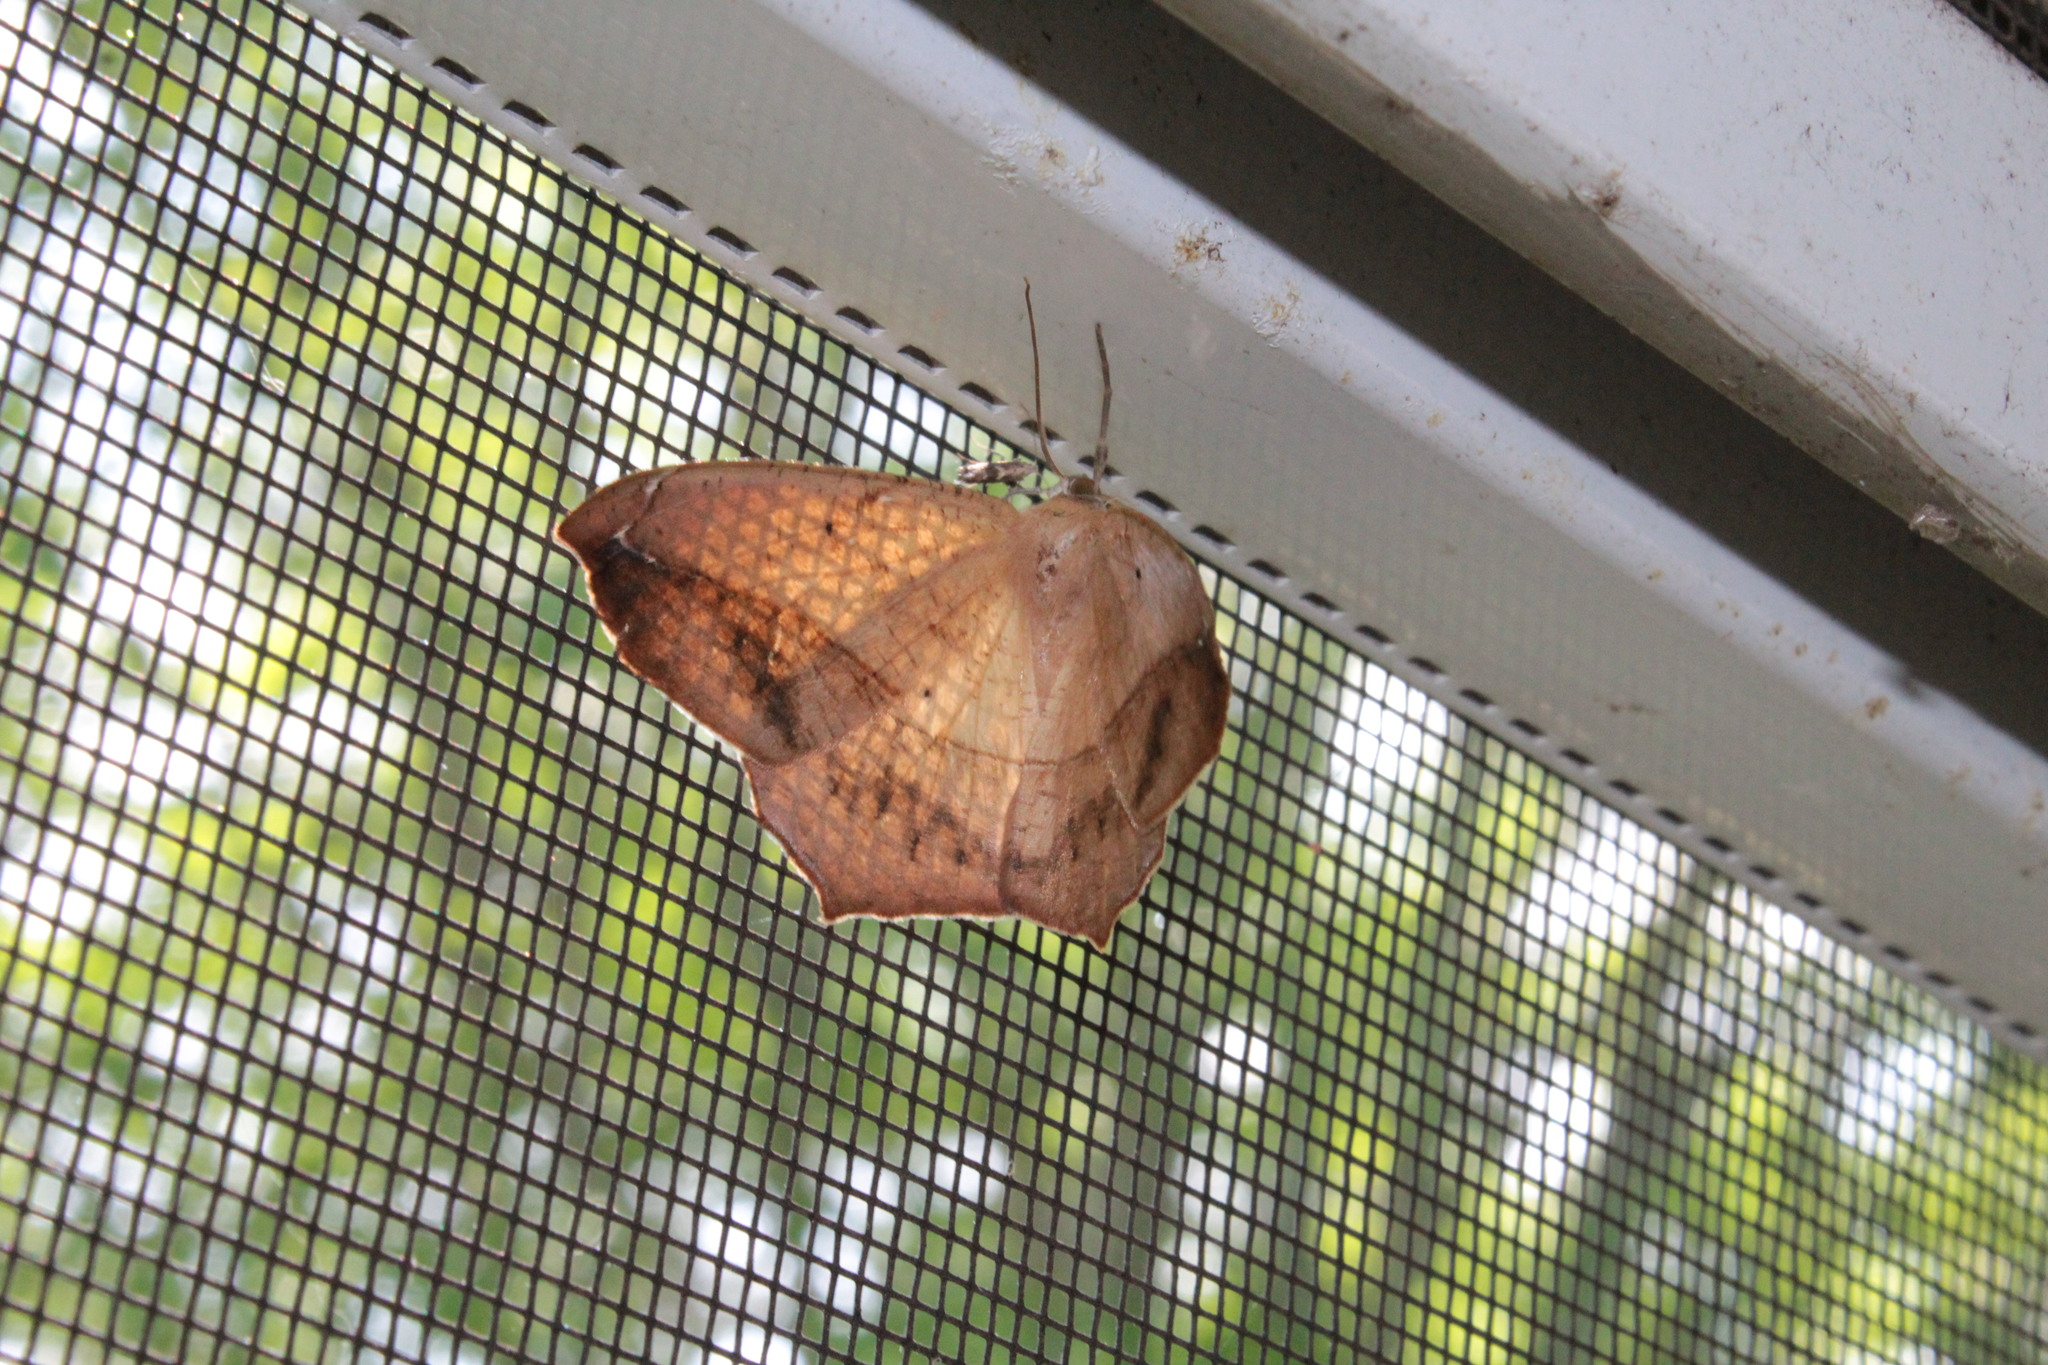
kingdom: Animalia
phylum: Arthropoda
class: Insecta
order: Lepidoptera
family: Geometridae
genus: Prochoerodes
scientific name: Prochoerodes lineola
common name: Large maple spanworm
